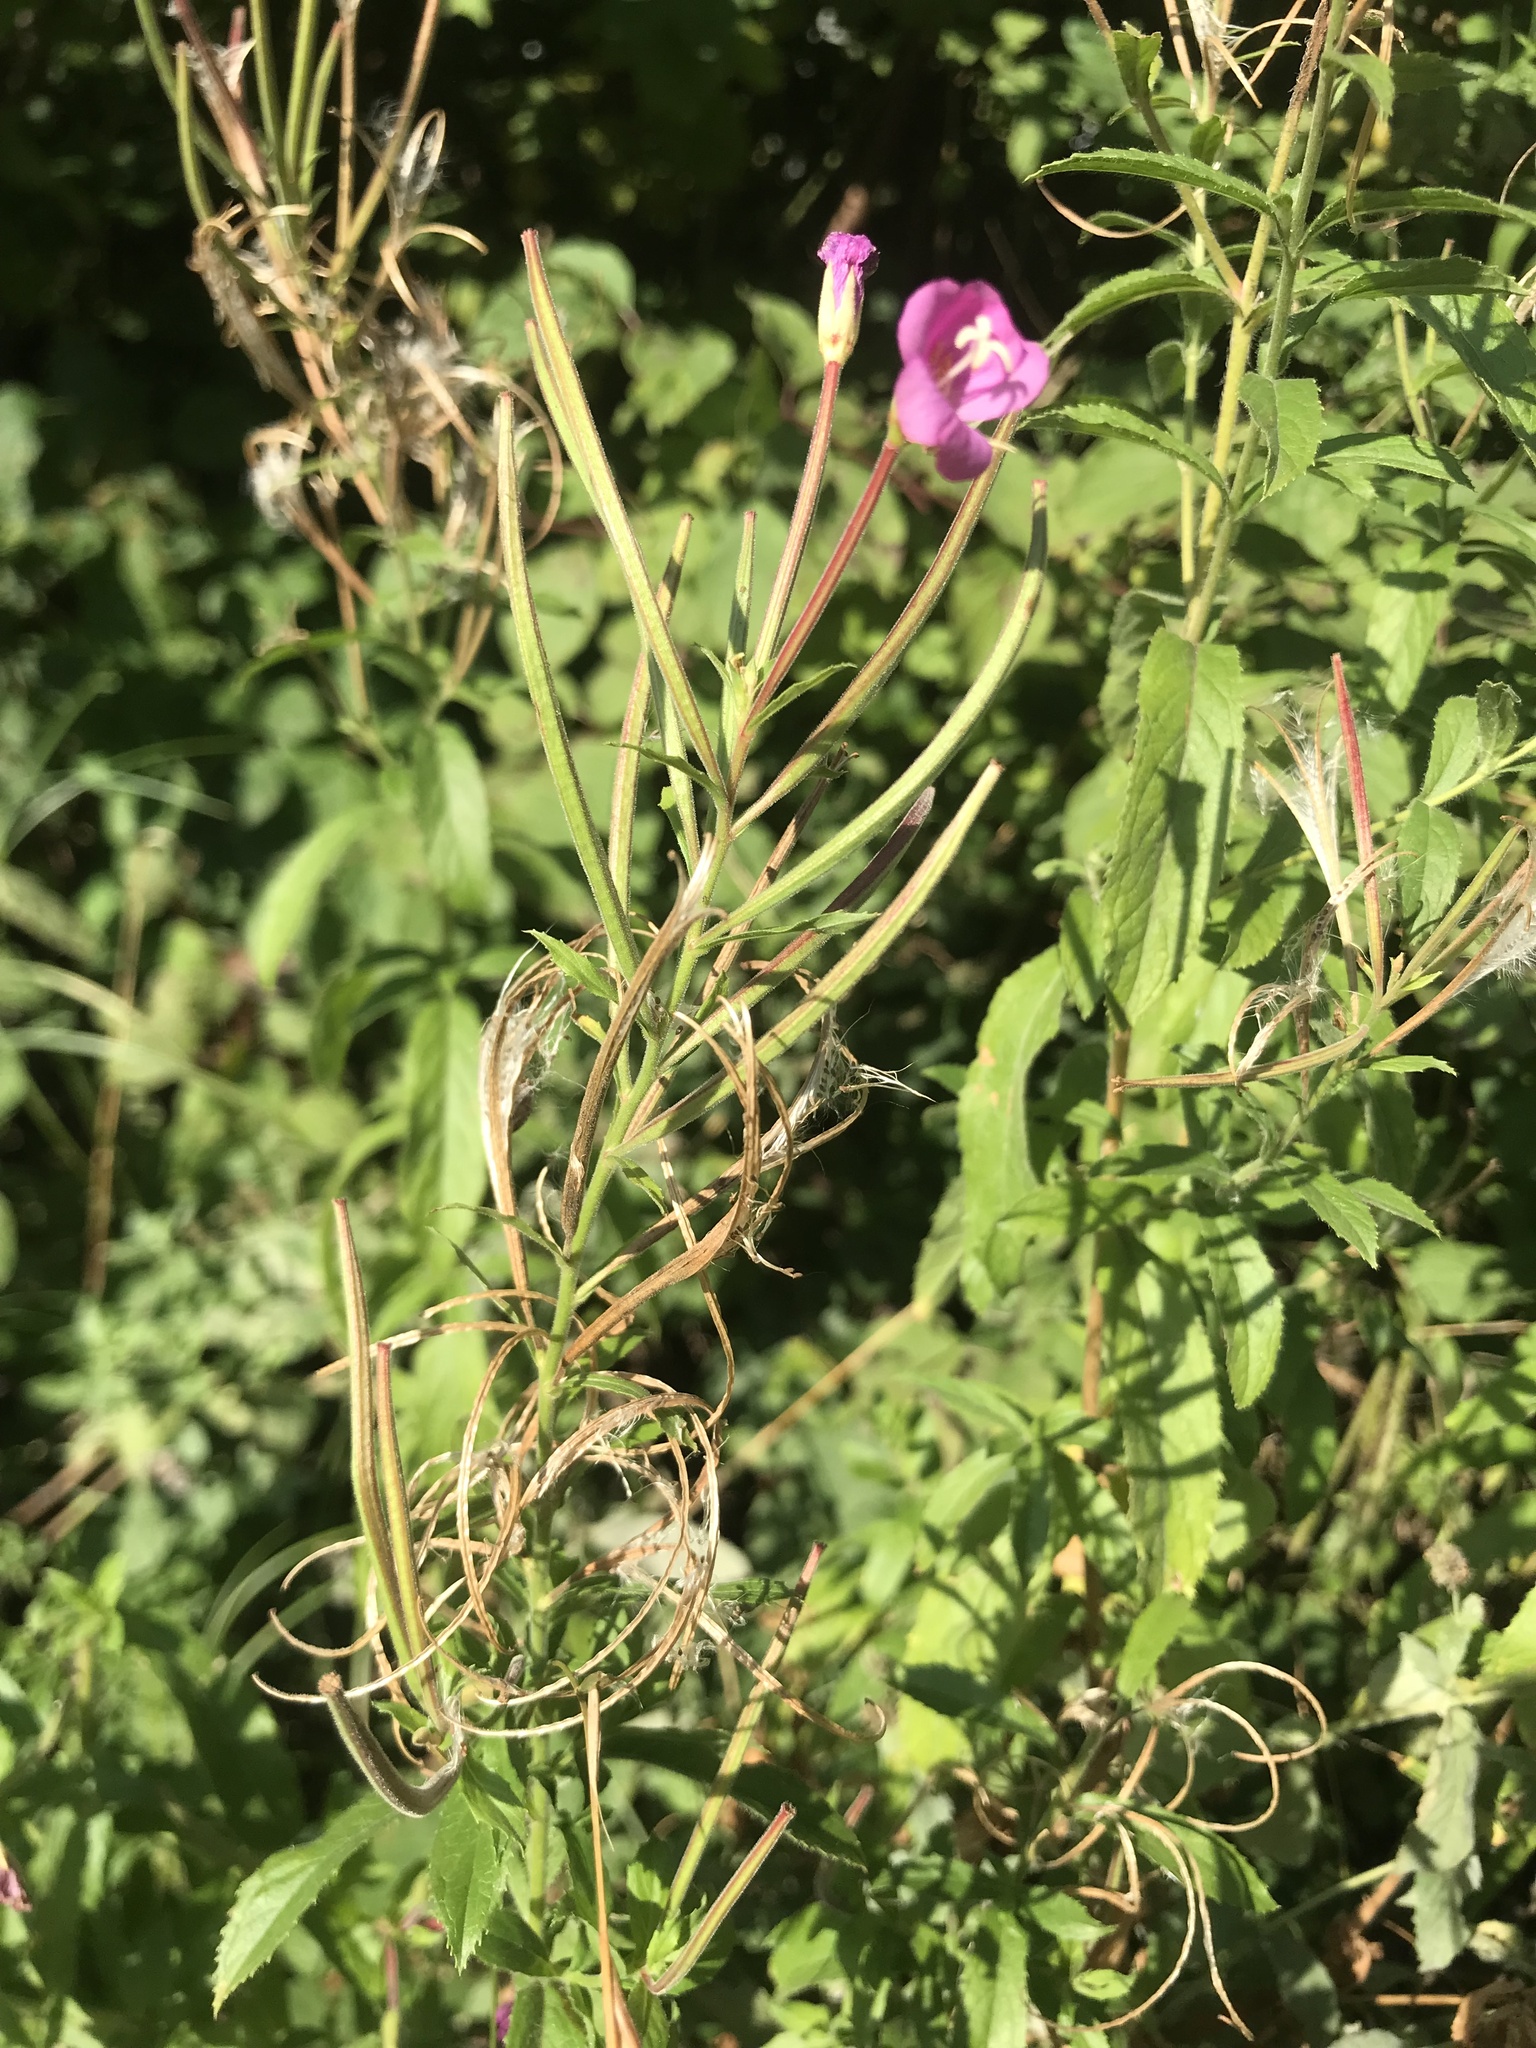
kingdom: Plantae
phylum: Tracheophyta
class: Magnoliopsida
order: Myrtales
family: Onagraceae
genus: Epilobium
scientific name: Epilobium hirsutum
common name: Great willowherb
